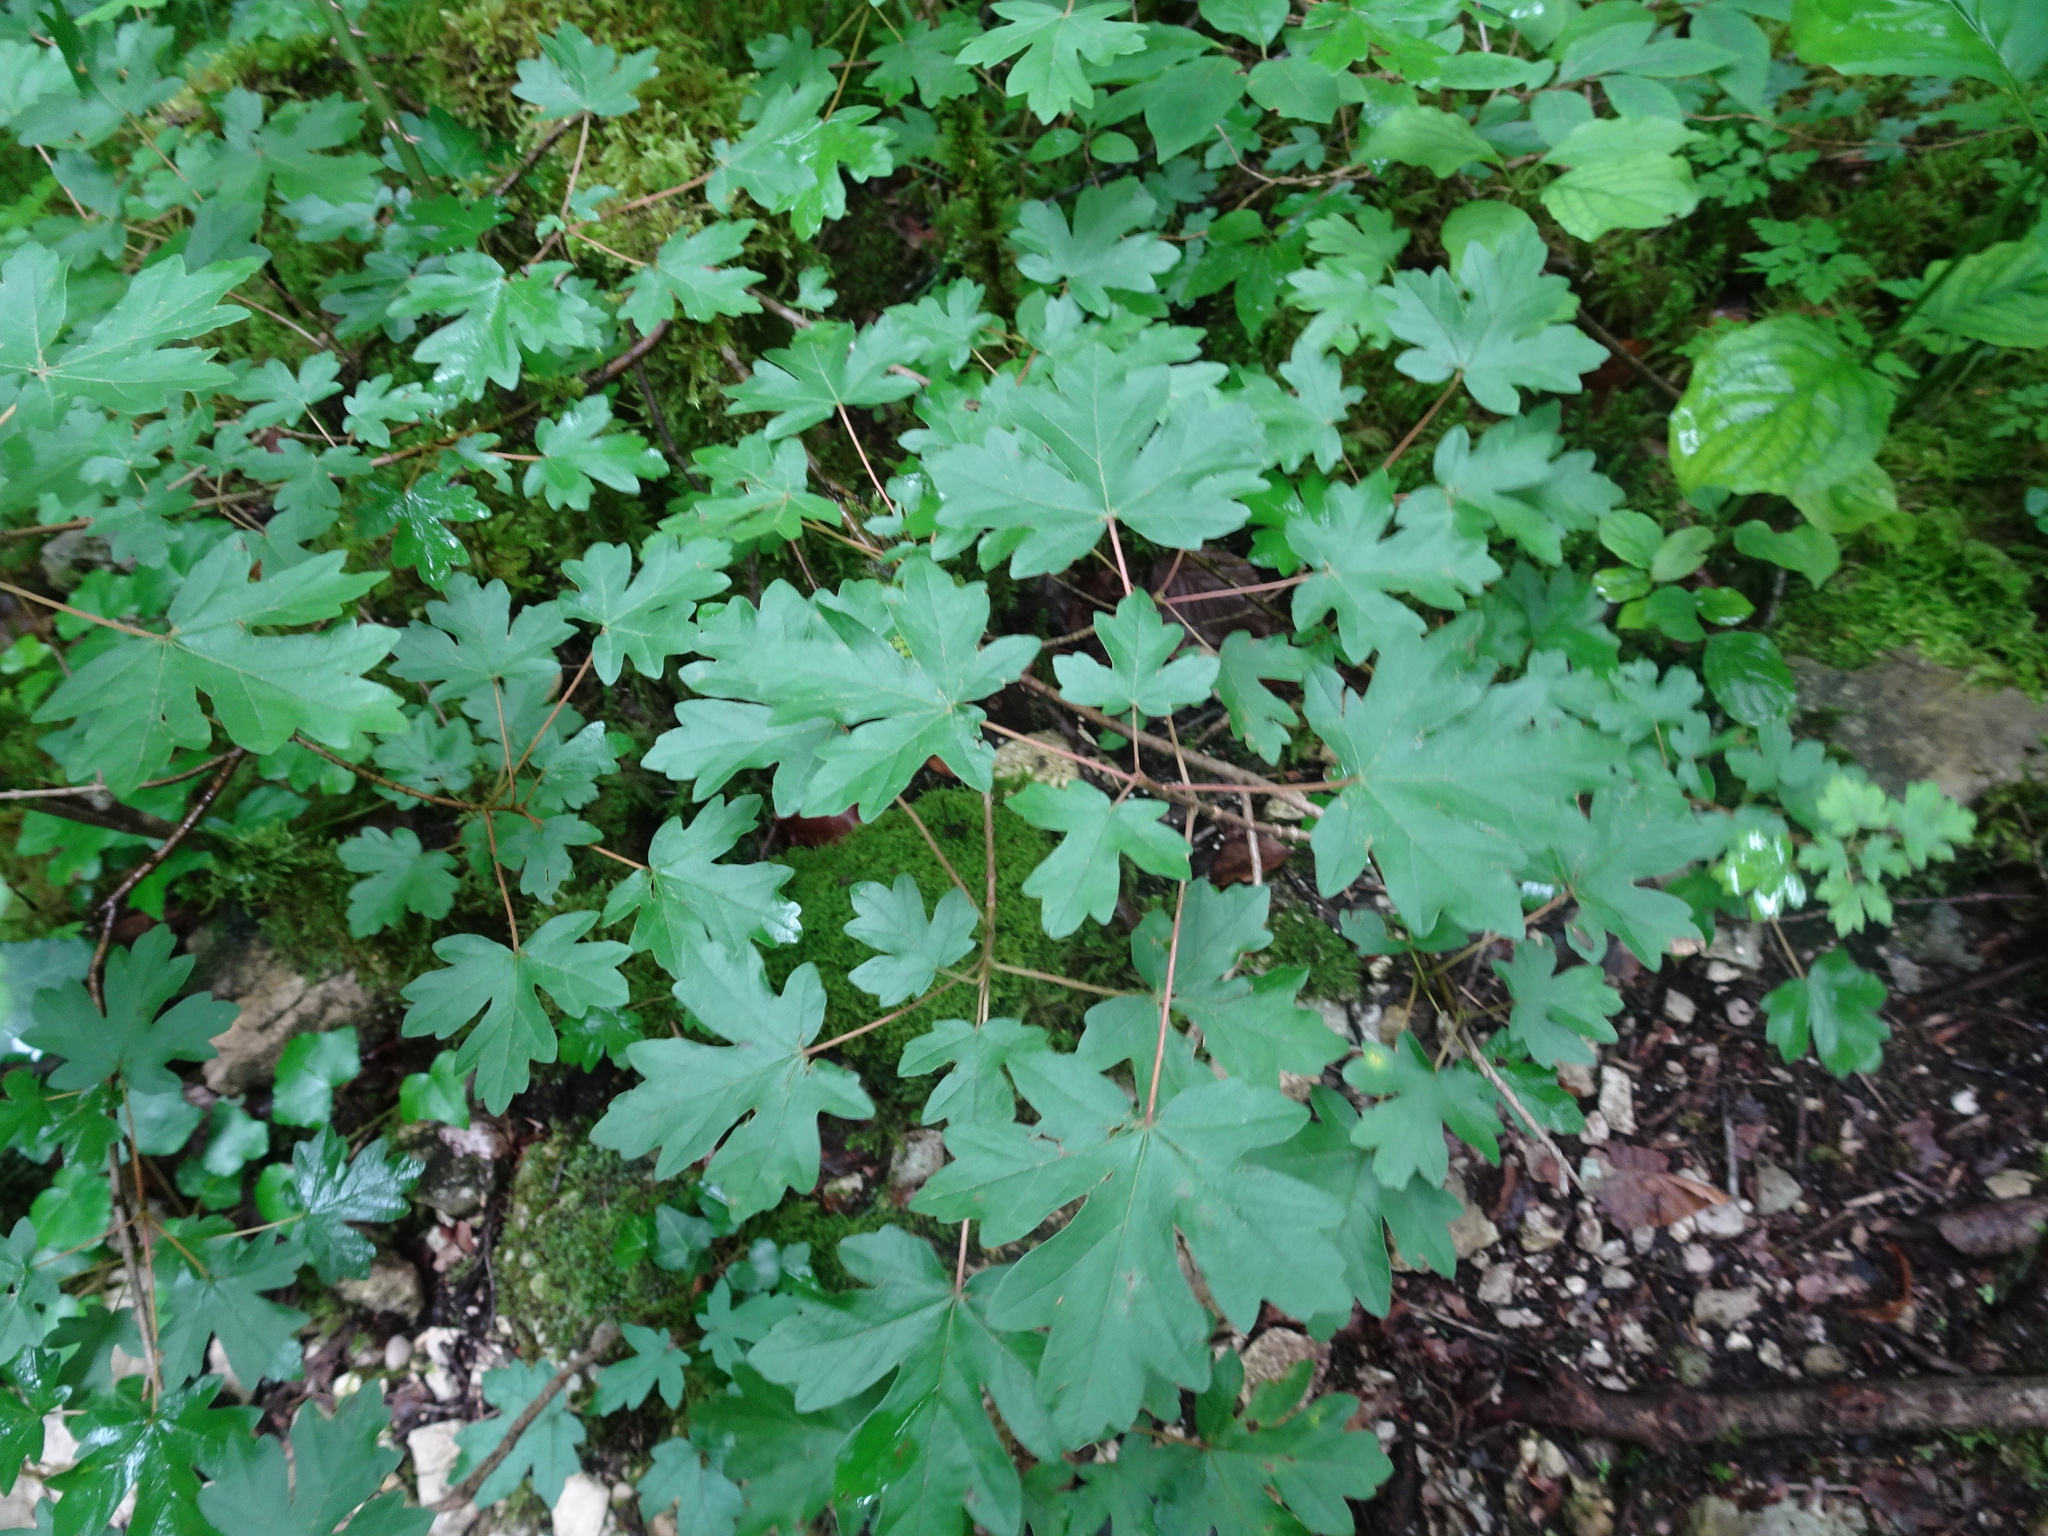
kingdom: Plantae
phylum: Tracheophyta
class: Magnoliopsida
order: Sapindales
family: Sapindaceae
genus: Acer
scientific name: Acer campestre
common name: Field maple
